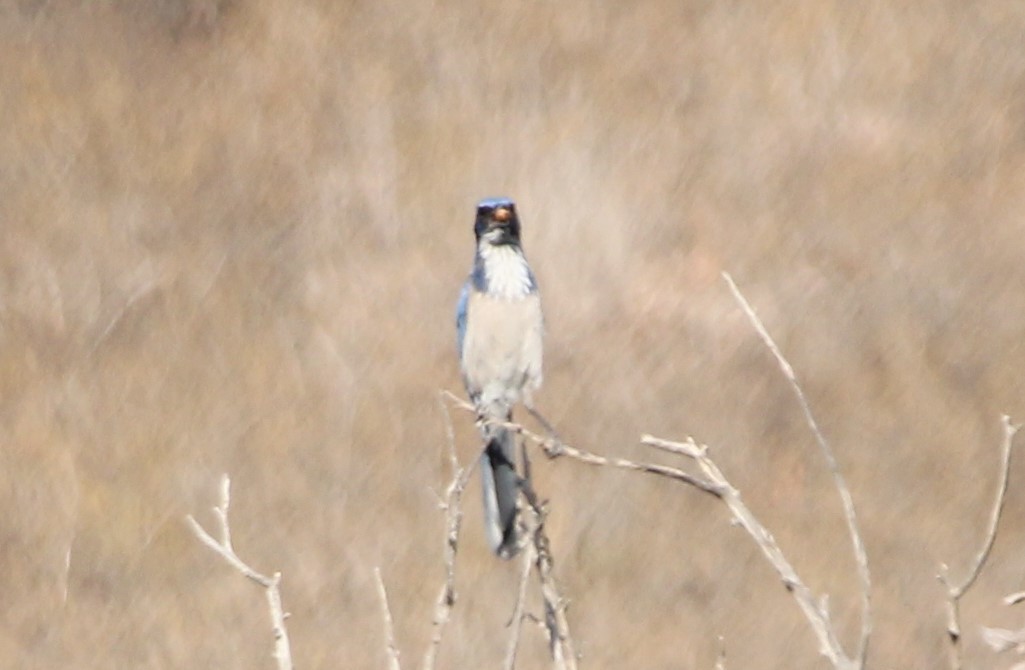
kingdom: Animalia
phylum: Chordata
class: Aves
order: Passeriformes
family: Corvidae
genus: Aphelocoma
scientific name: Aphelocoma californica
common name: California scrub-jay
